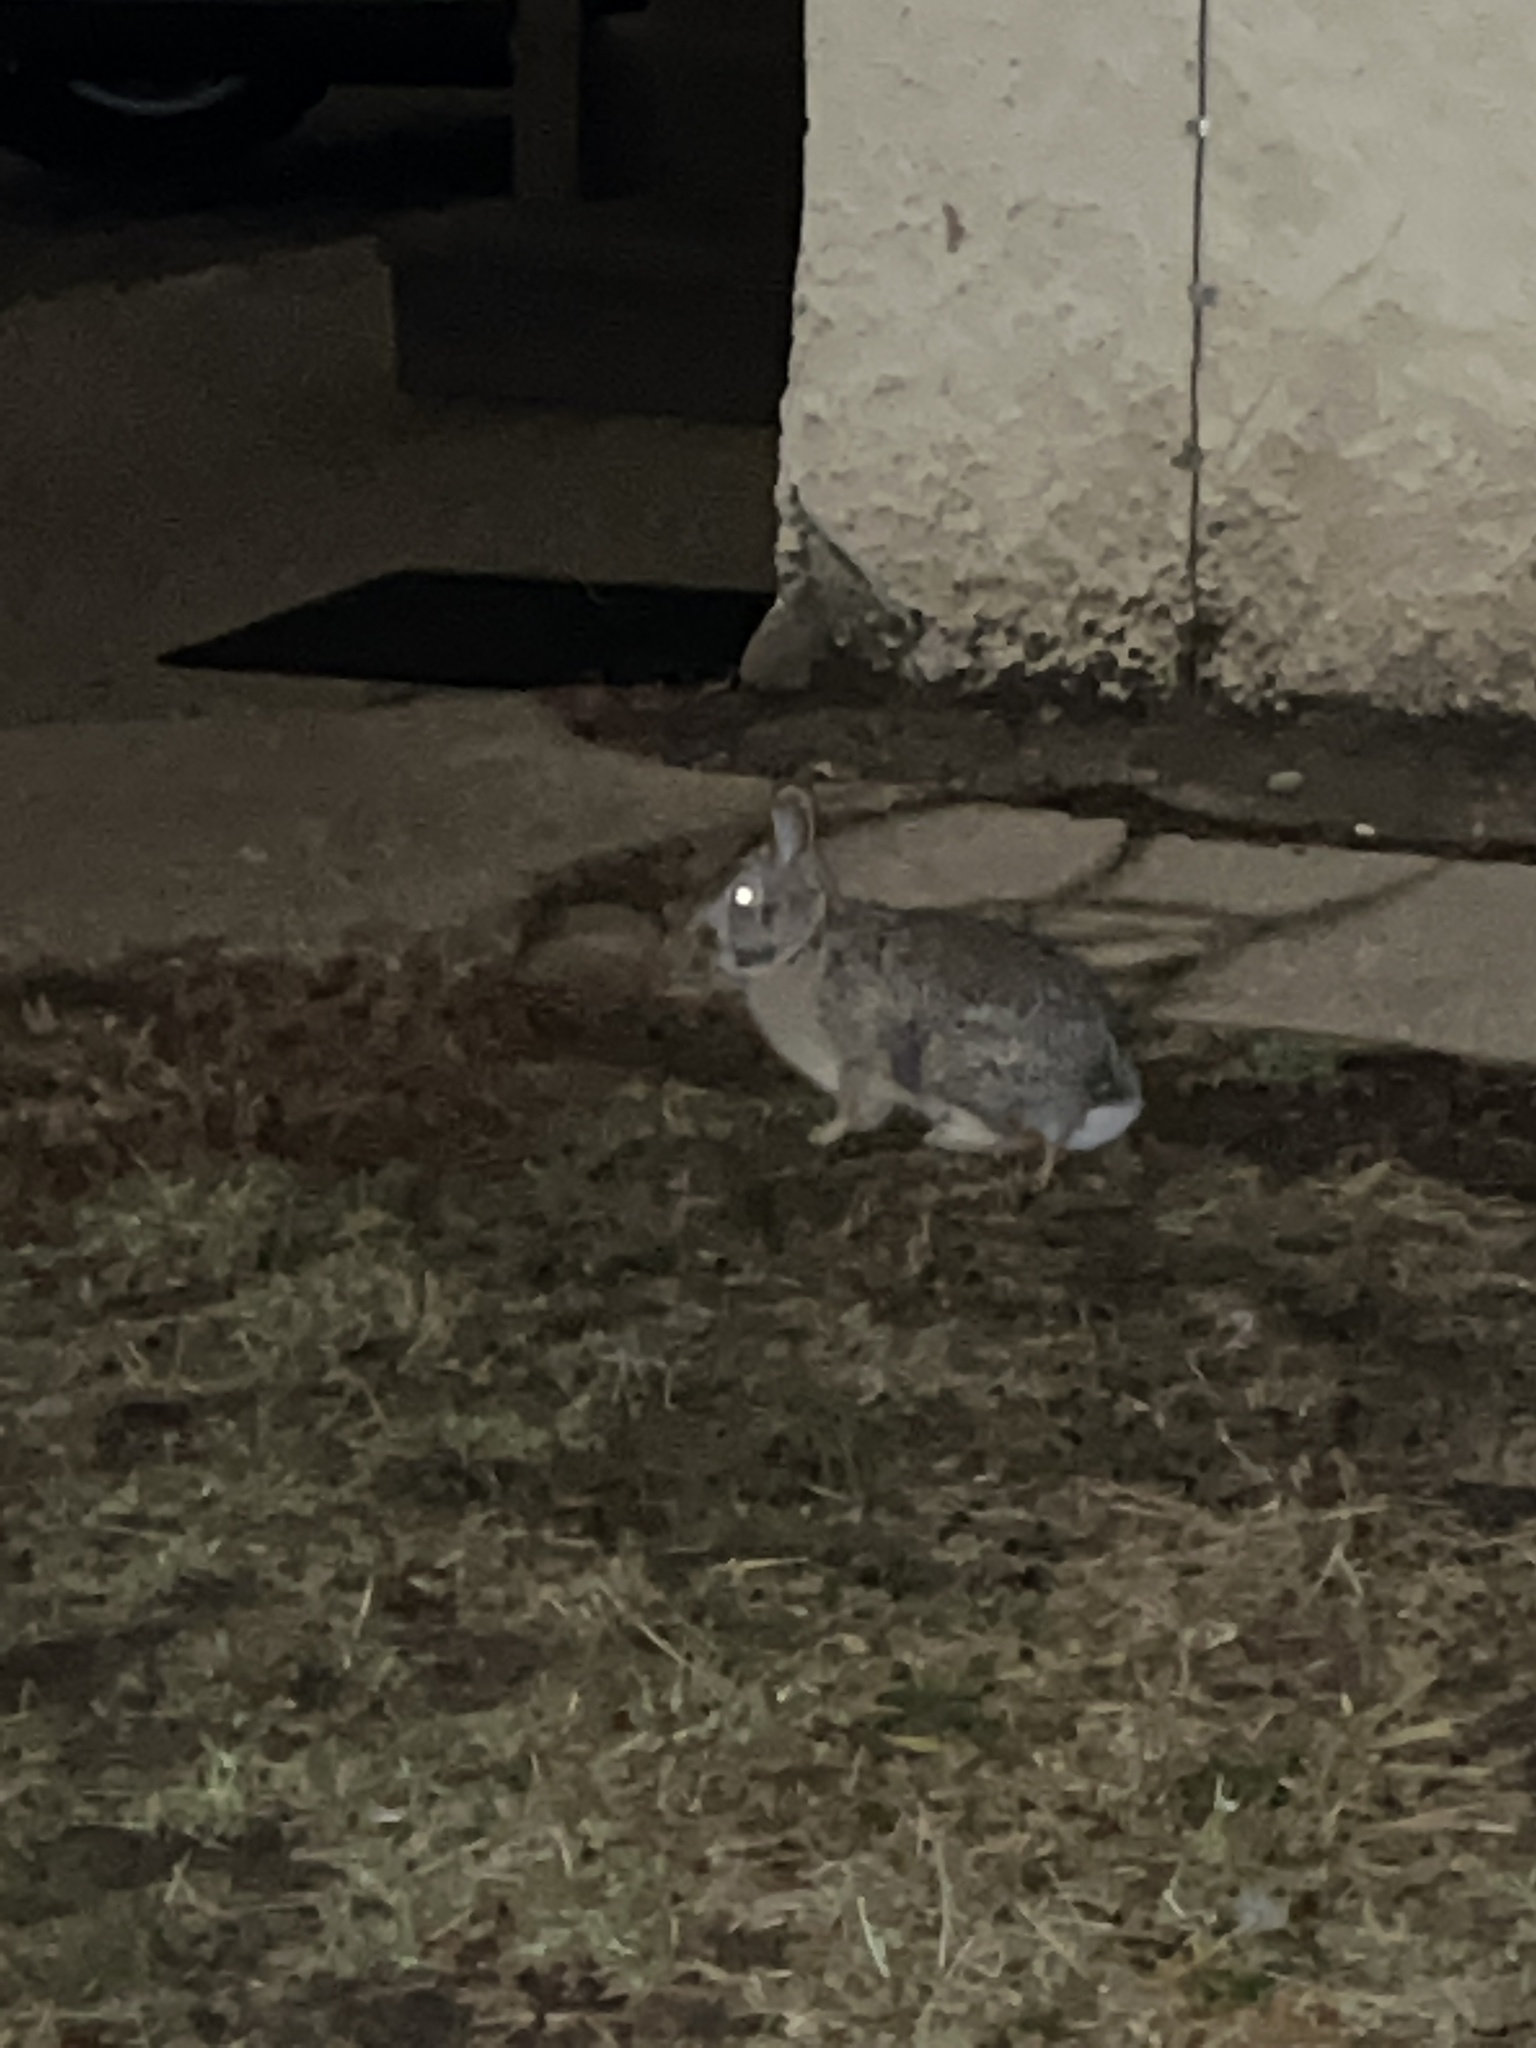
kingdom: Animalia
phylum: Chordata
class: Mammalia
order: Lagomorpha
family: Leporidae
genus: Sylvilagus
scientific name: Sylvilagus floridanus
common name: Eastern cottontail
